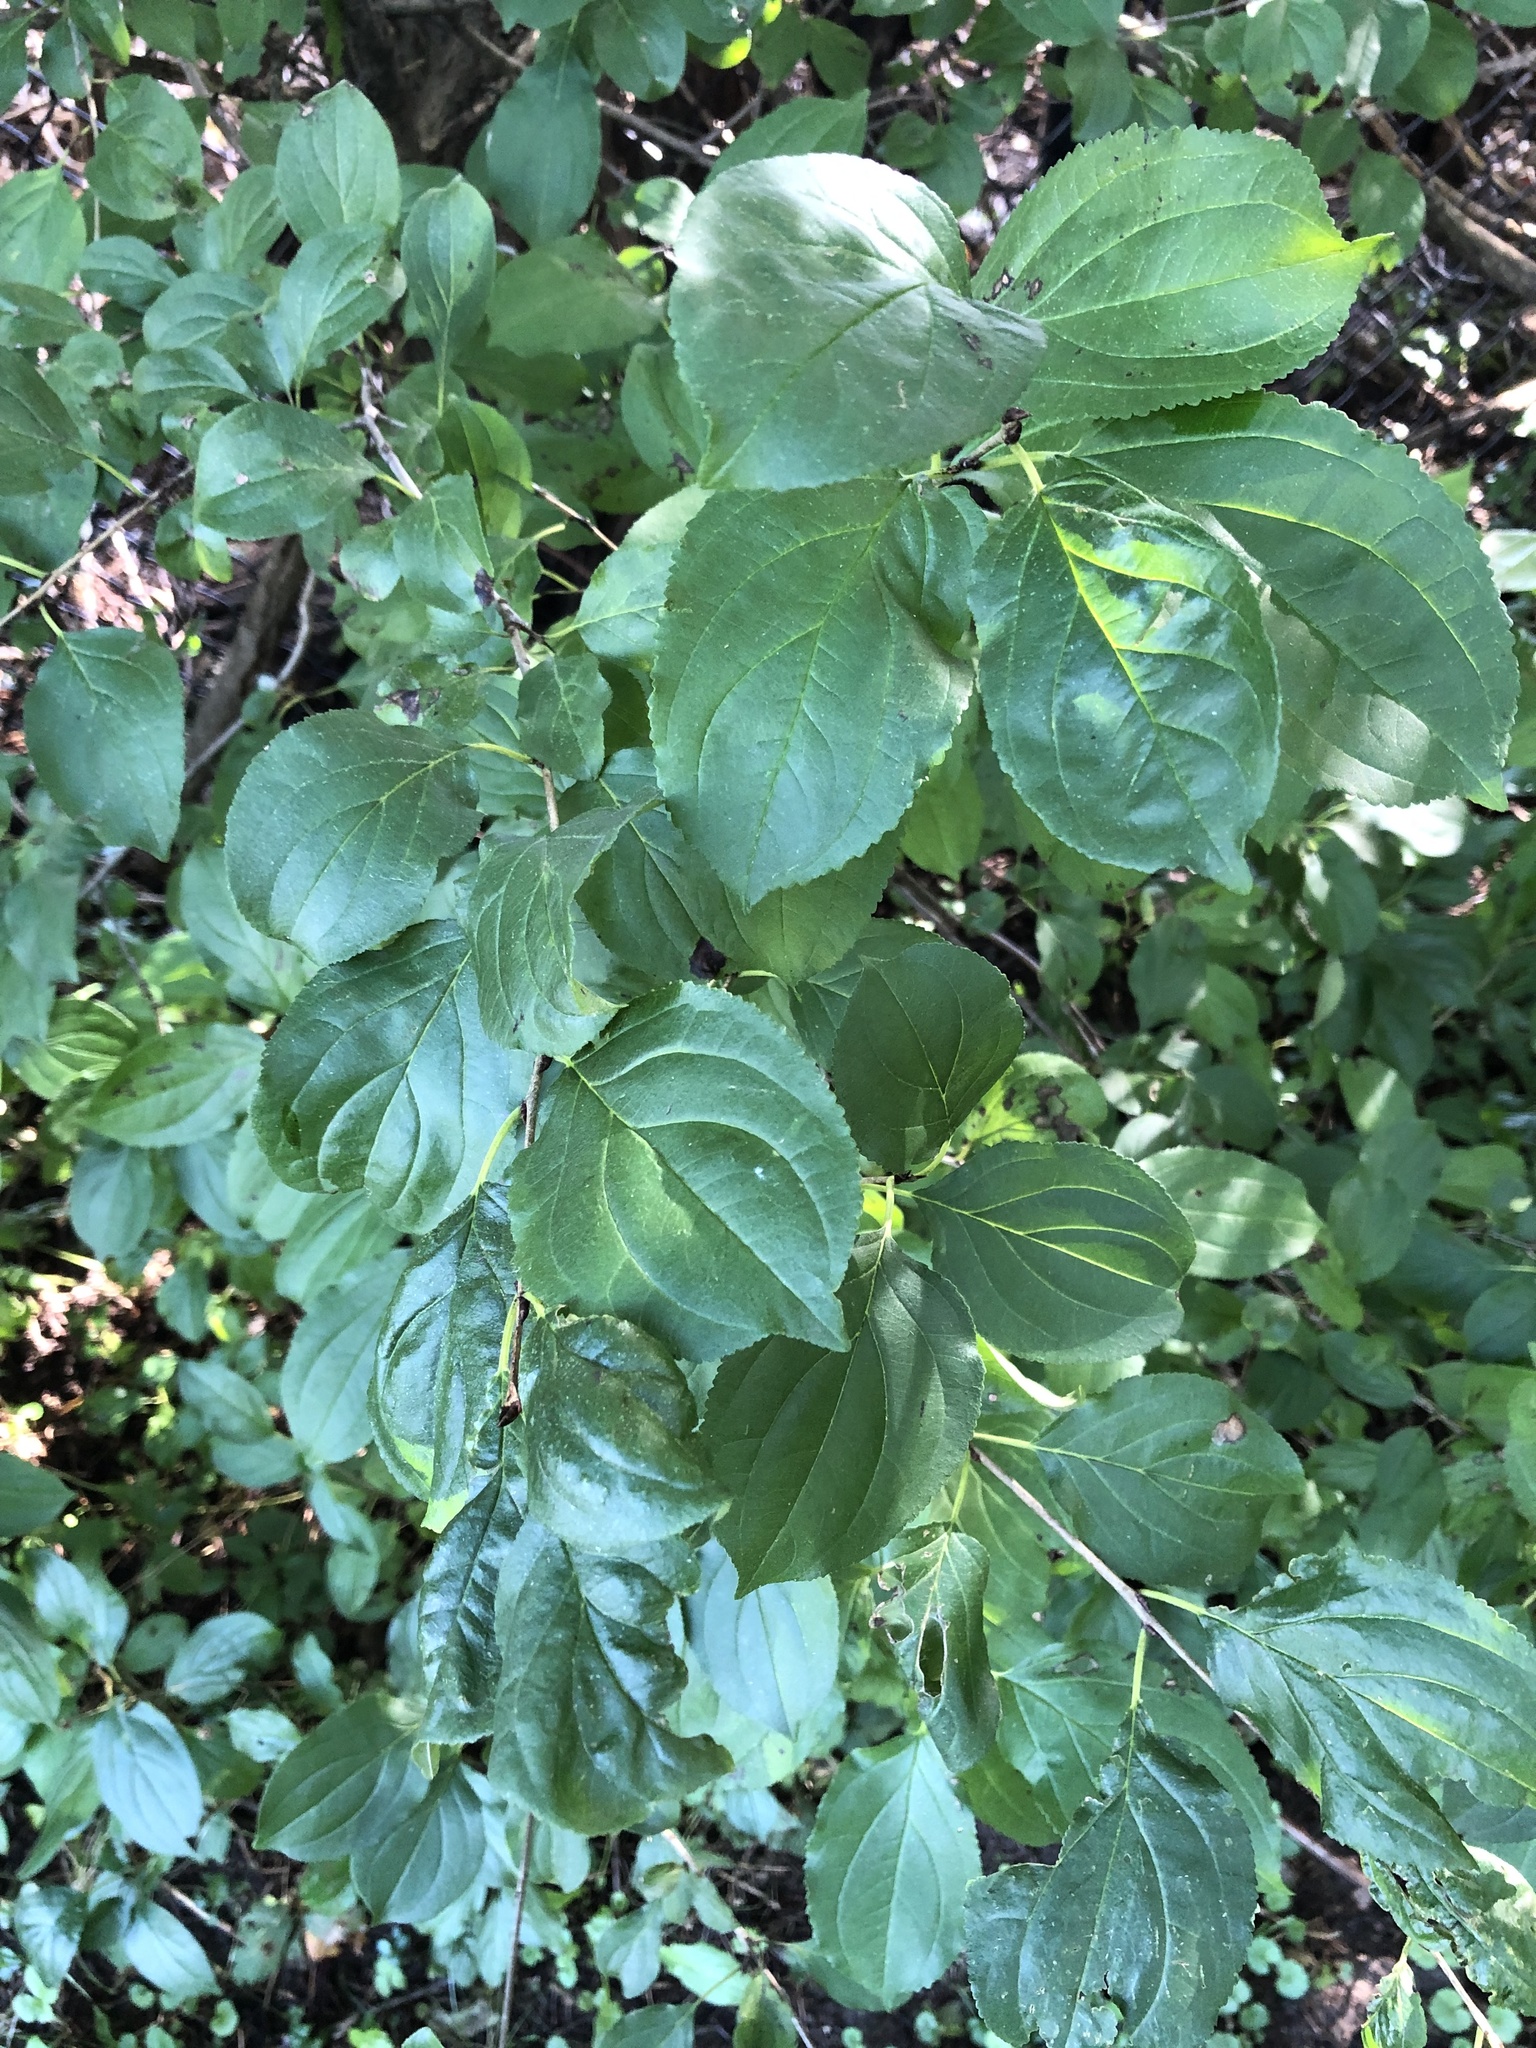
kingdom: Plantae
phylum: Tracheophyta
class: Magnoliopsida
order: Rosales
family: Rhamnaceae
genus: Rhamnus
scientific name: Rhamnus cathartica
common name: Common buckthorn
